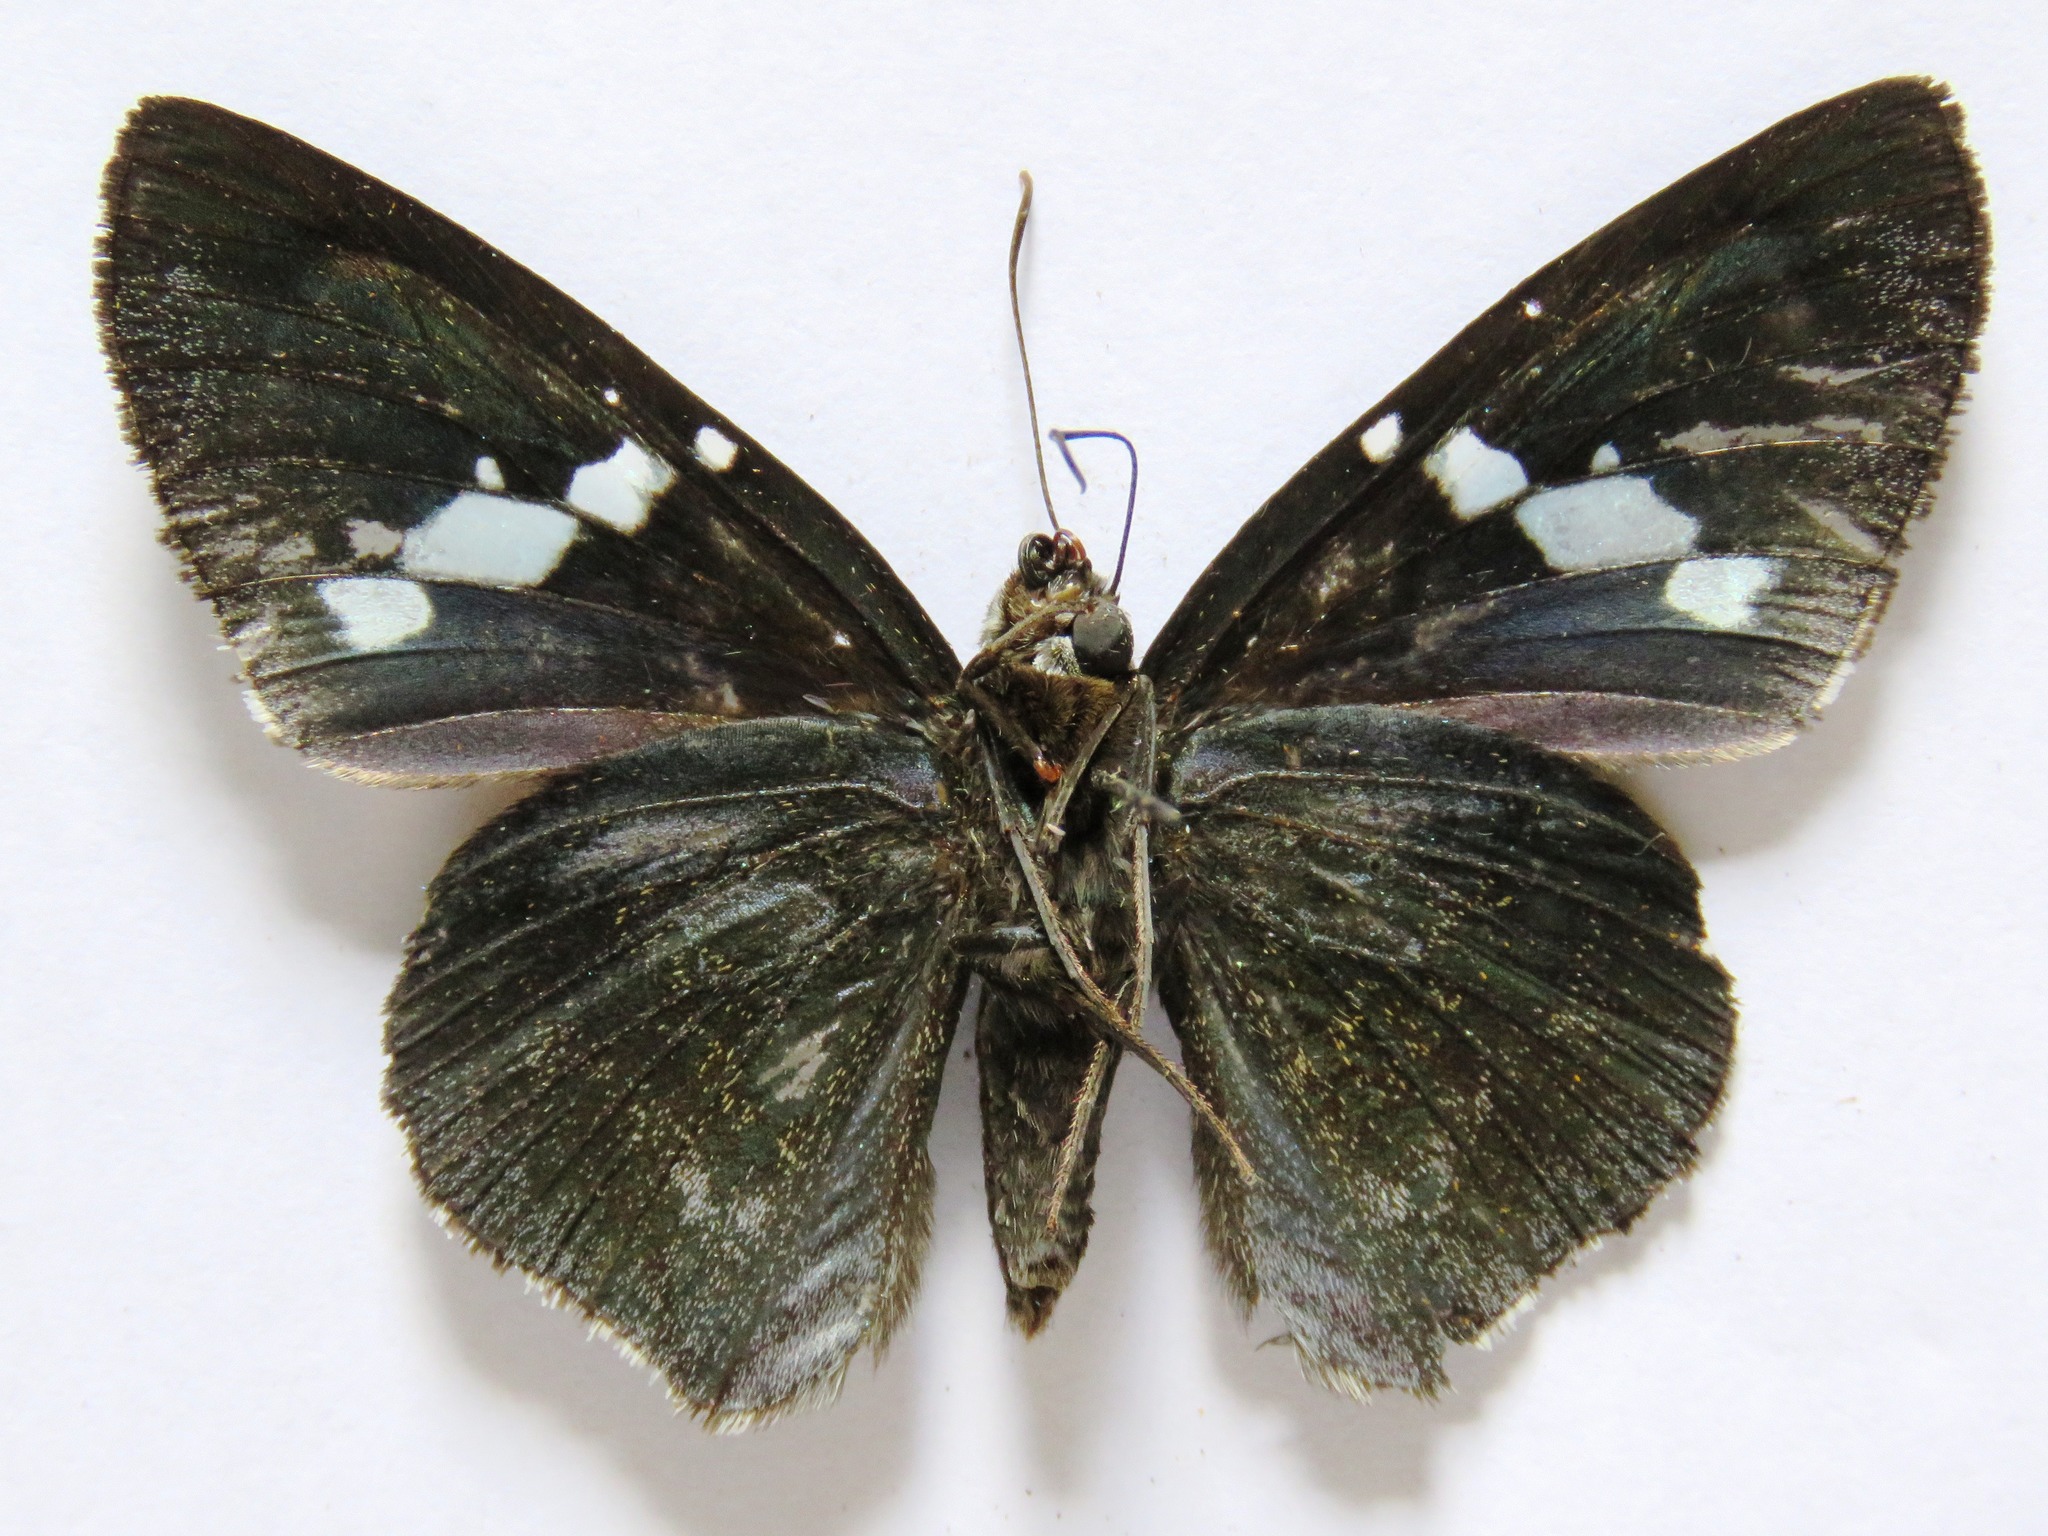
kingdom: Animalia
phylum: Arthropoda
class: Insecta
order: Lepidoptera
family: Hesperiidae
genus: Astraptes
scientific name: Astraptes parisi
